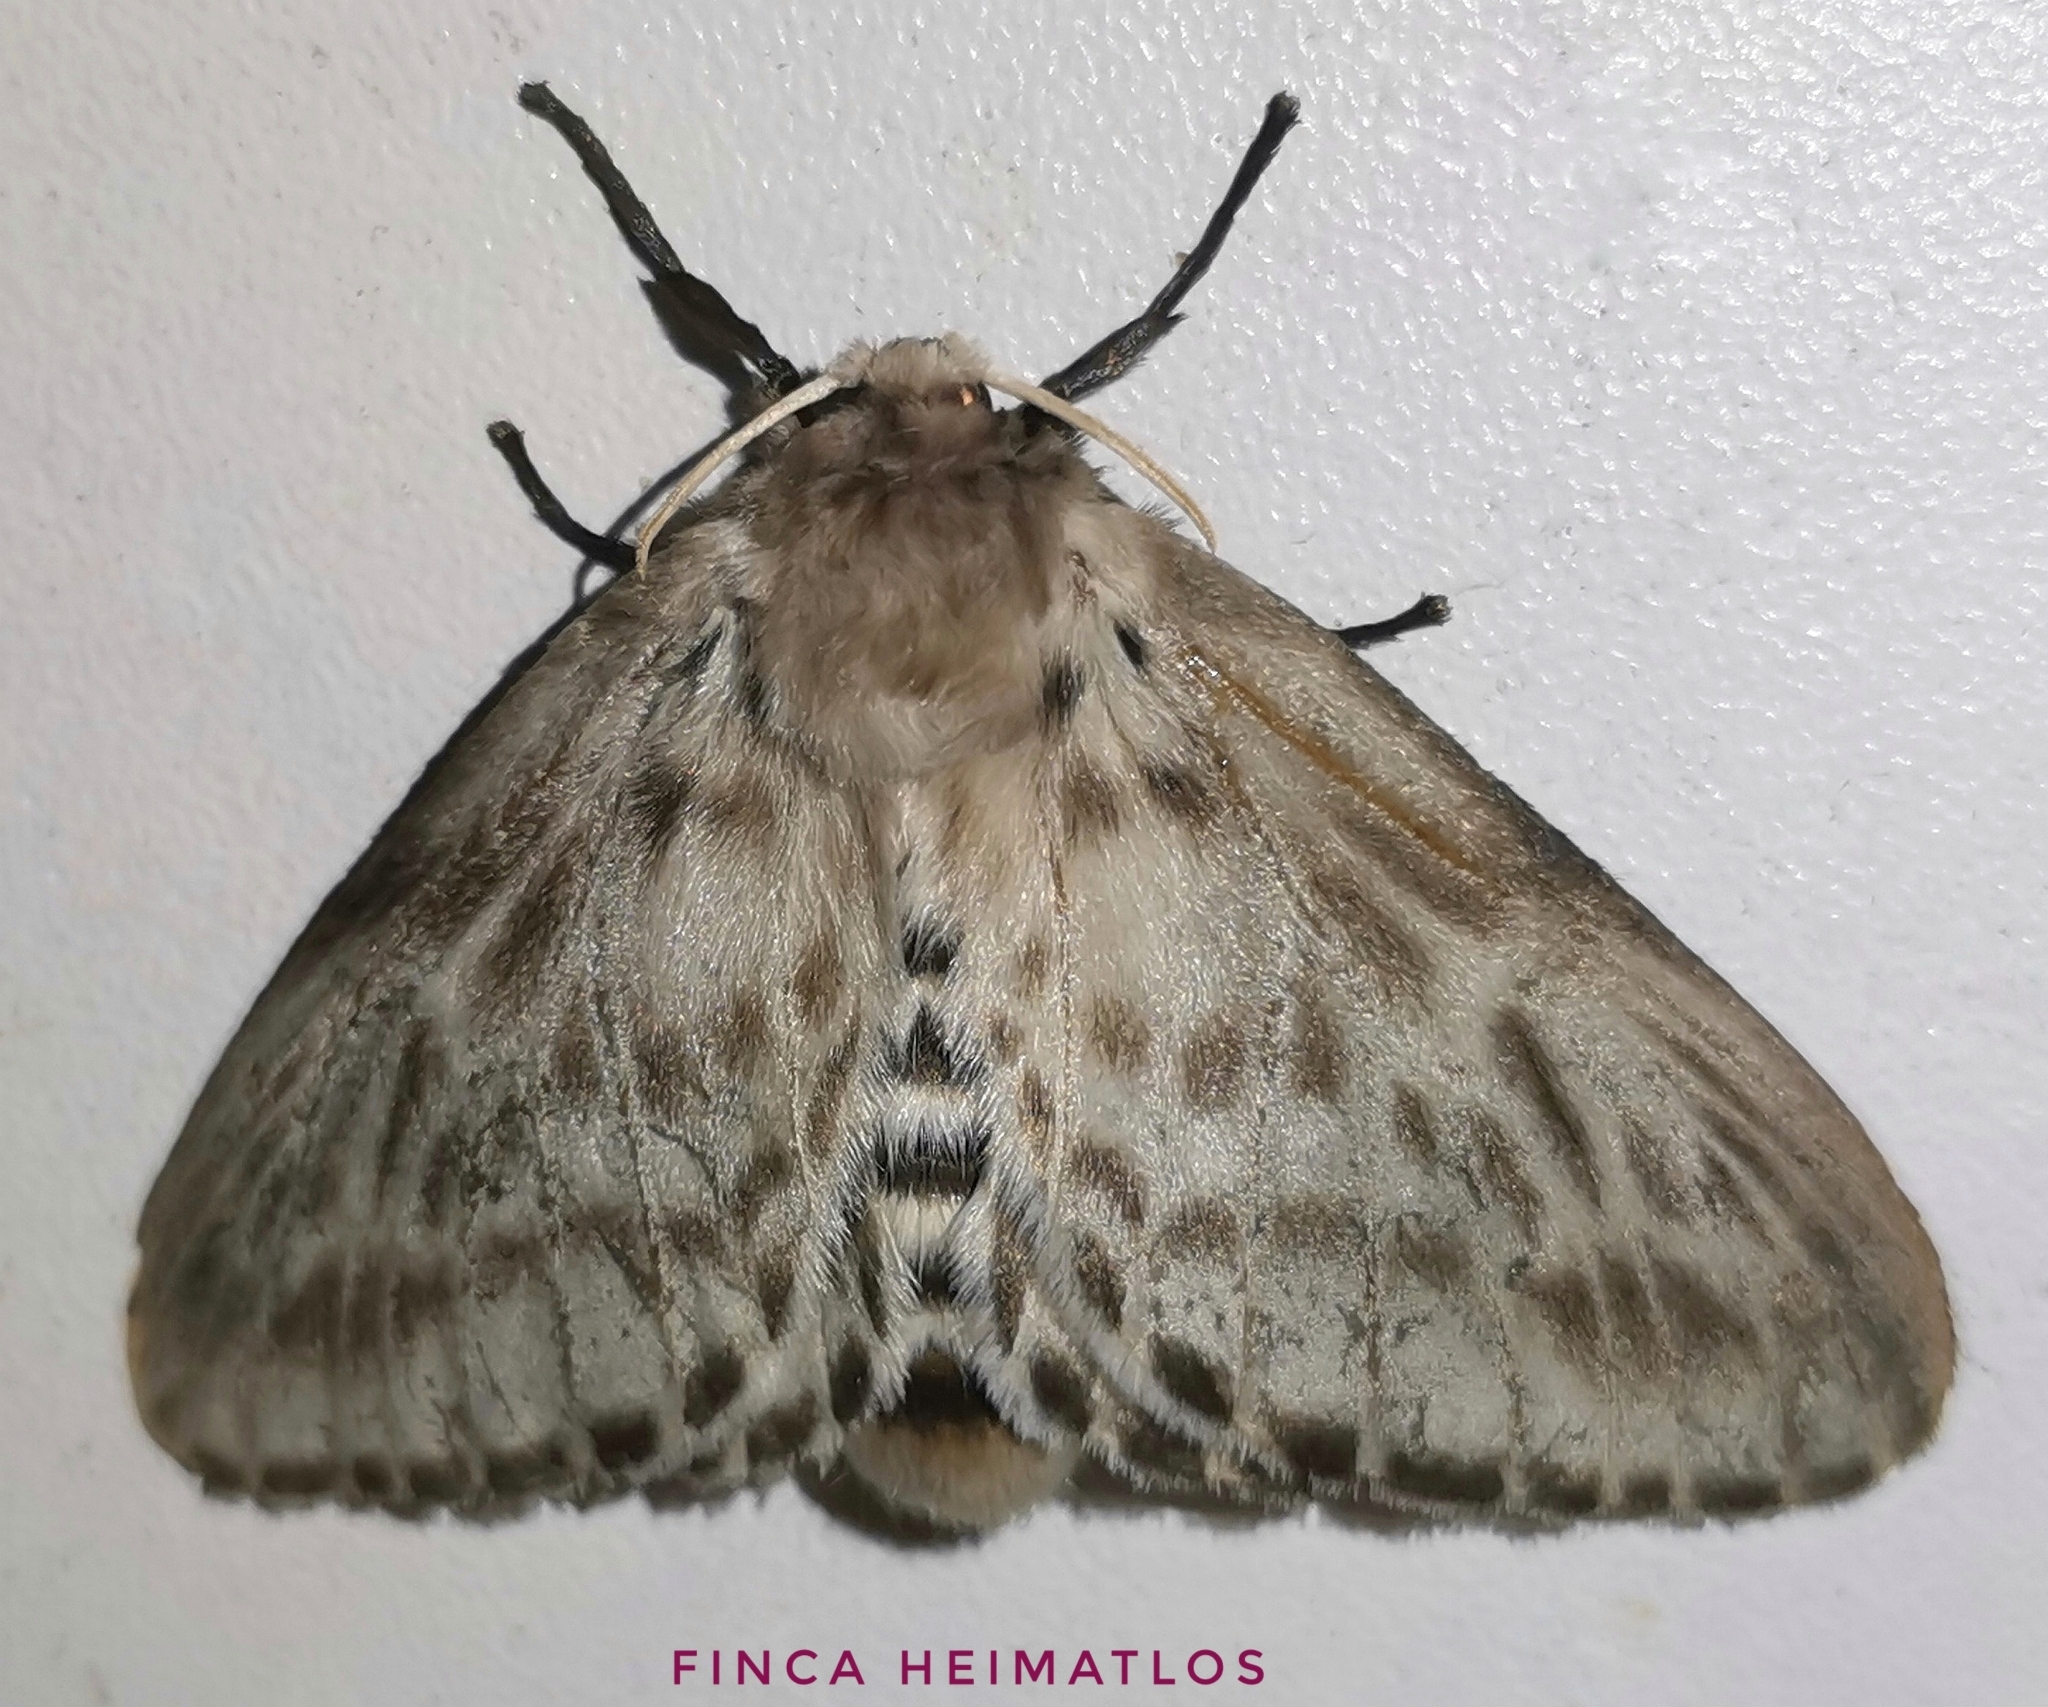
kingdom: Animalia
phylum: Arthropoda
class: Insecta
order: Lepidoptera
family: Megalopygidae
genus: Podalia
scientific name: Podalia gamelia
